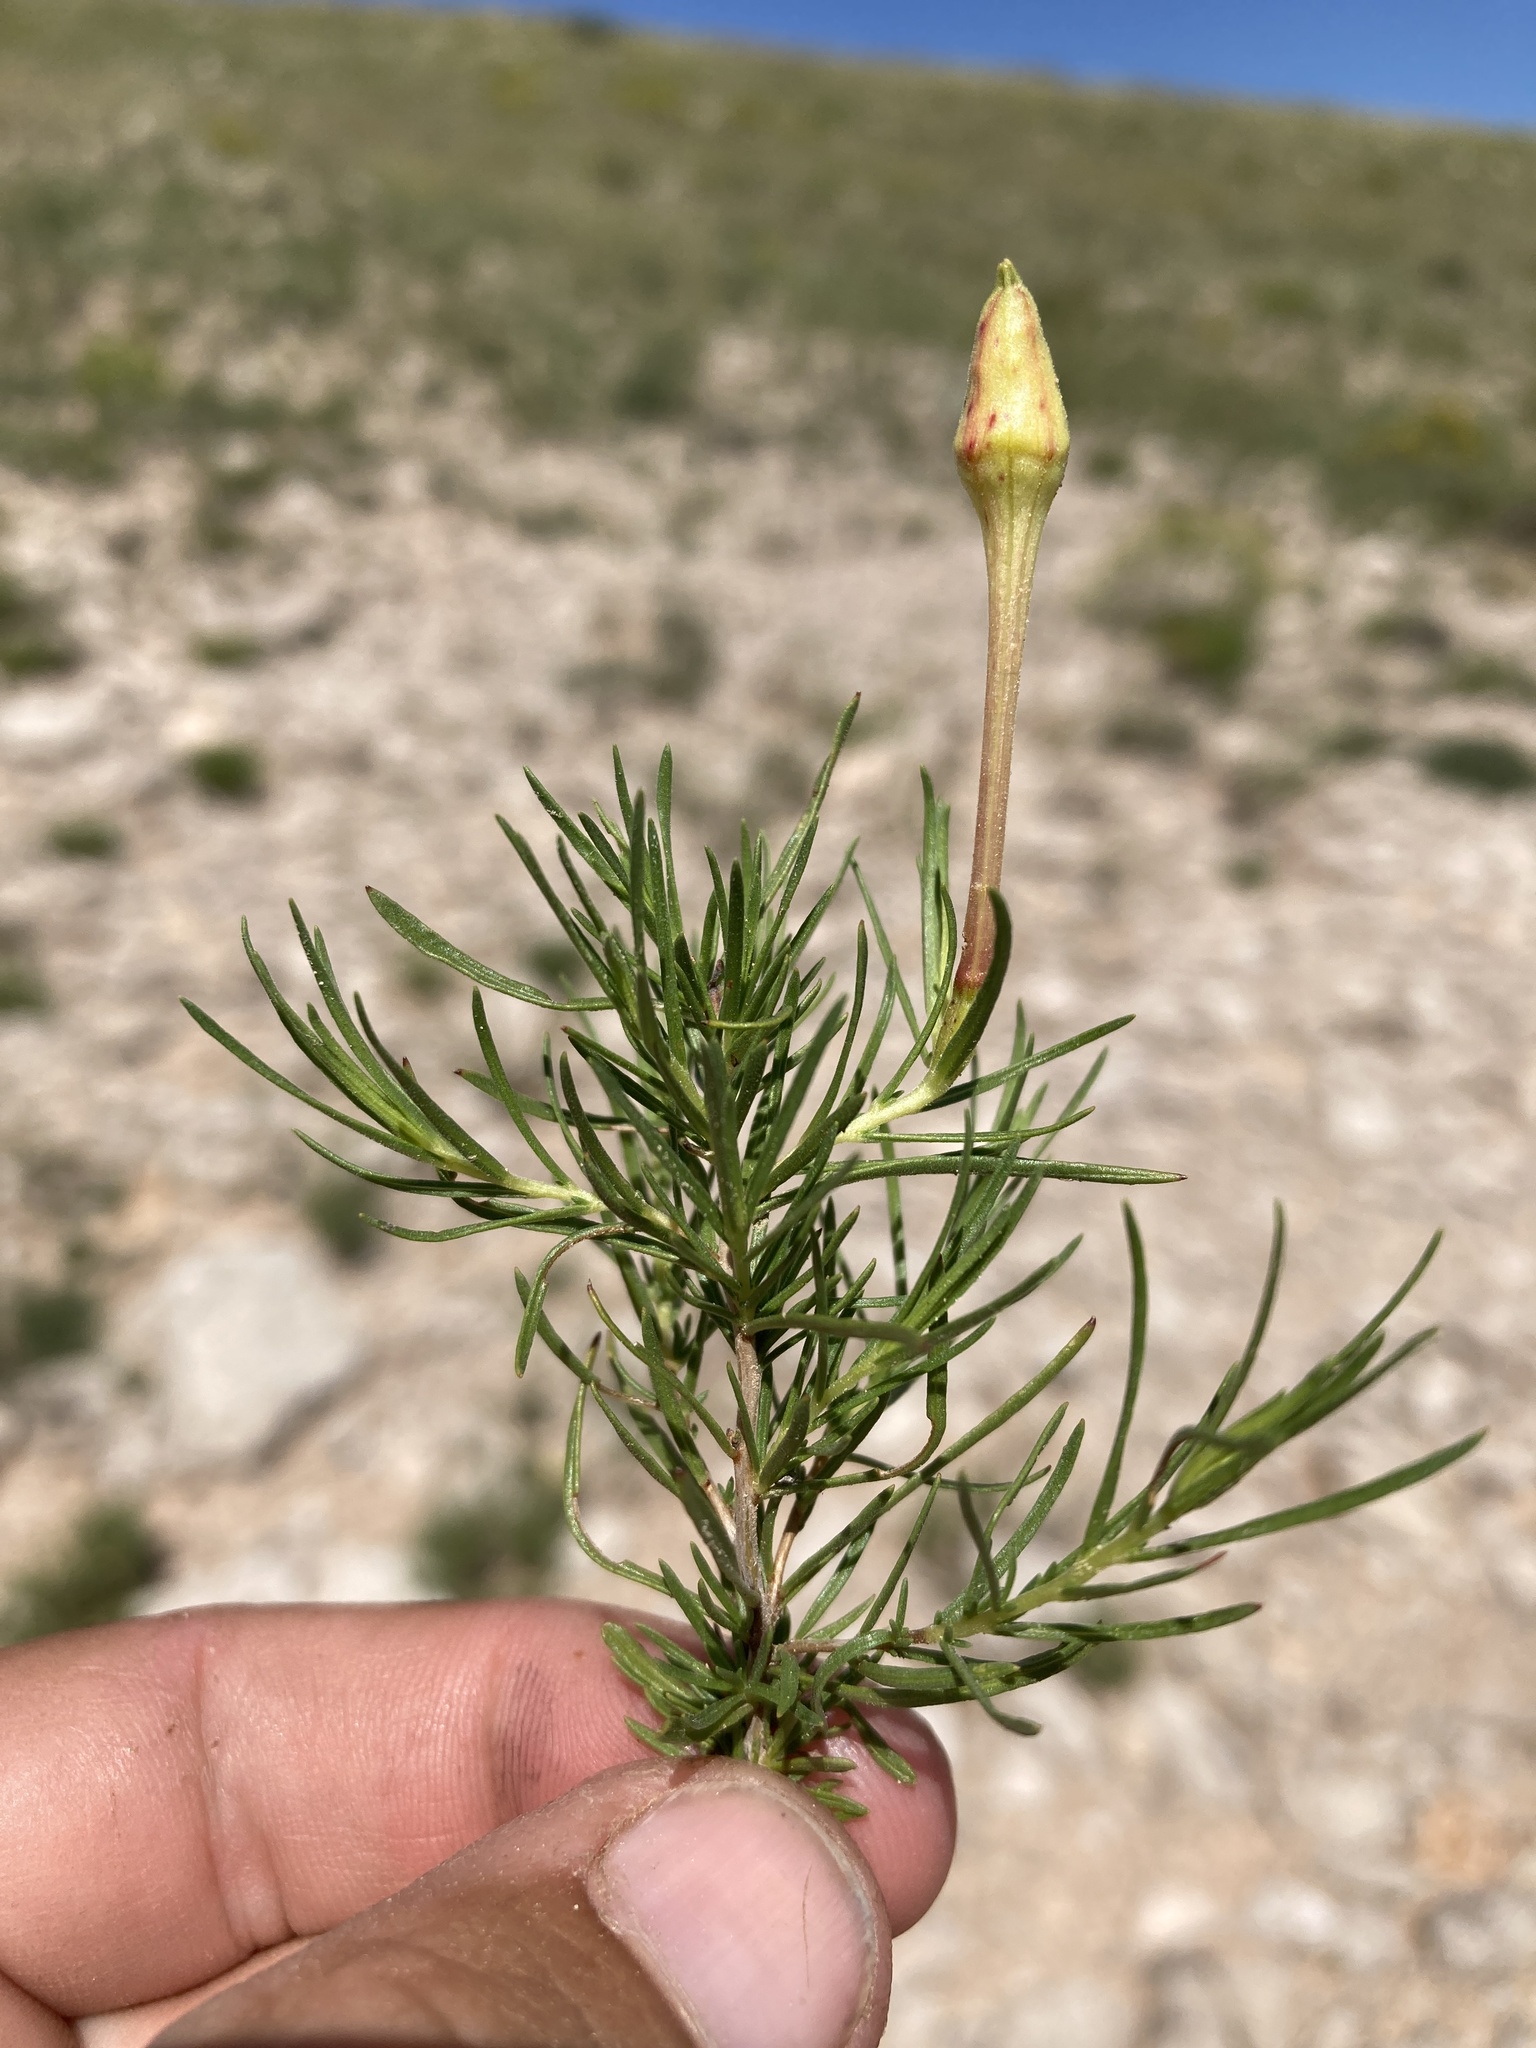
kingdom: Plantae
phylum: Tracheophyta
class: Magnoliopsida
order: Myrtales
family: Onagraceae
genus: Oenothera
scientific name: Oenothera hartwegii
